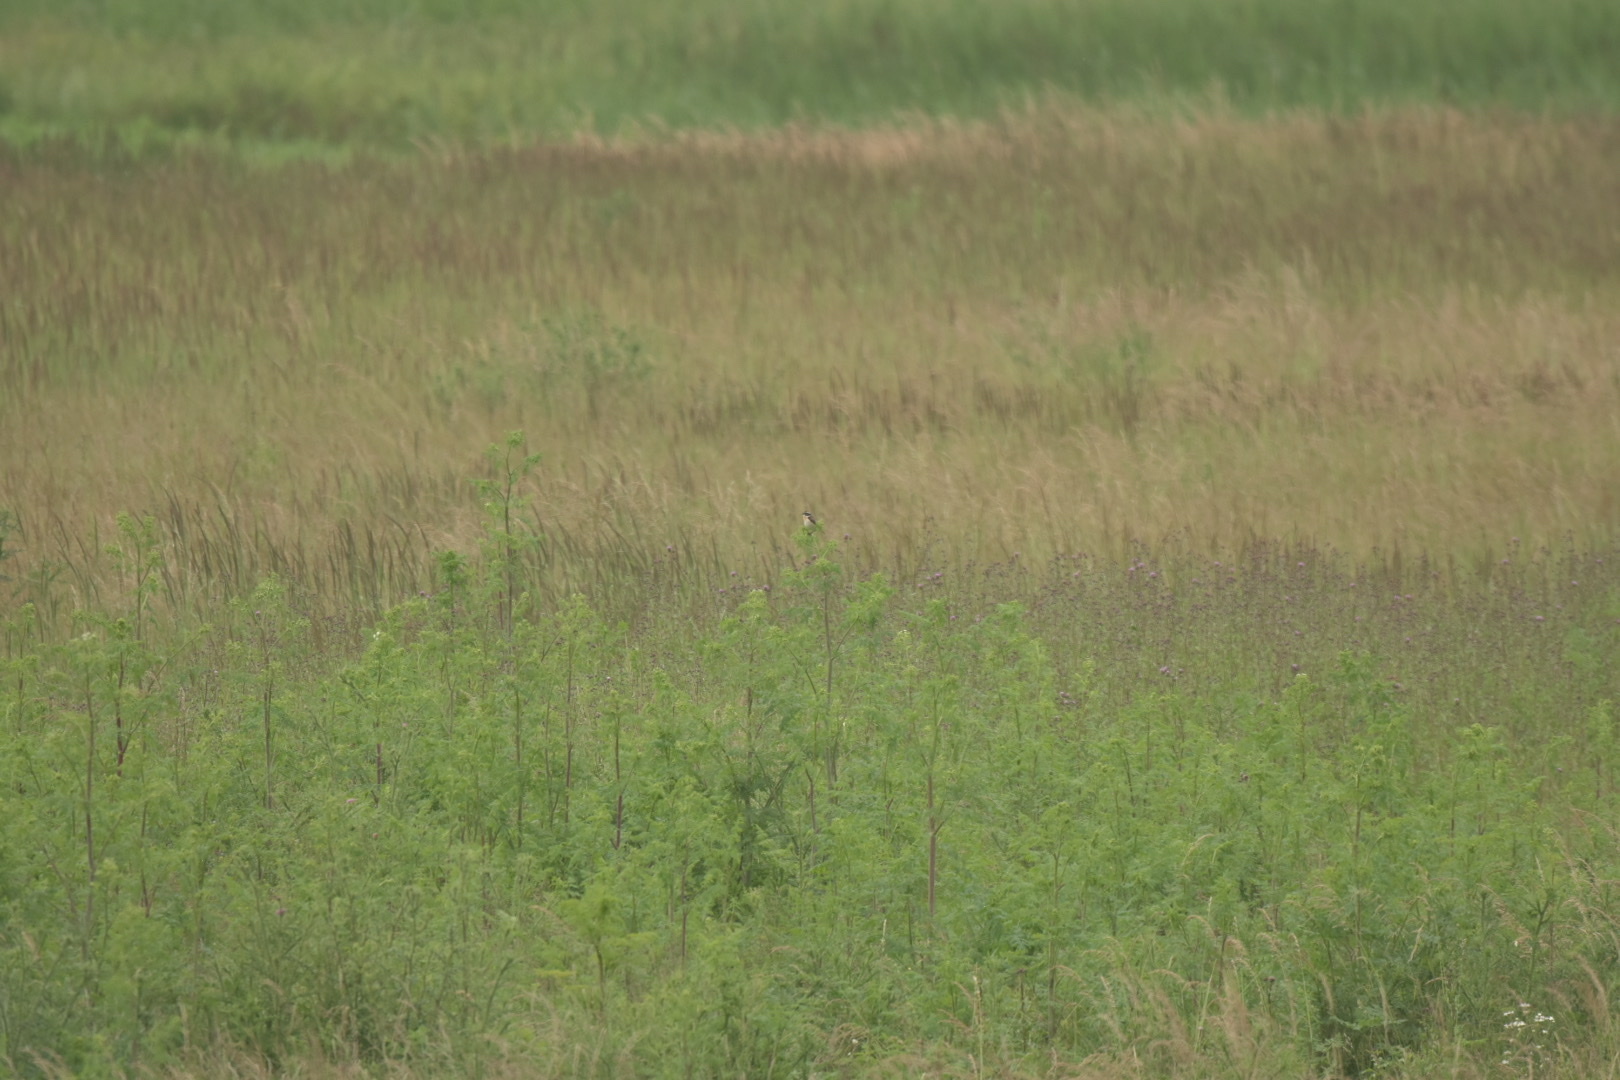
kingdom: Animalia
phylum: Chordata
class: Aves
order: Passeriformes
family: Muscicapidae
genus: Saxicola
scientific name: Saxicola rubetra
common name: Whinchat
